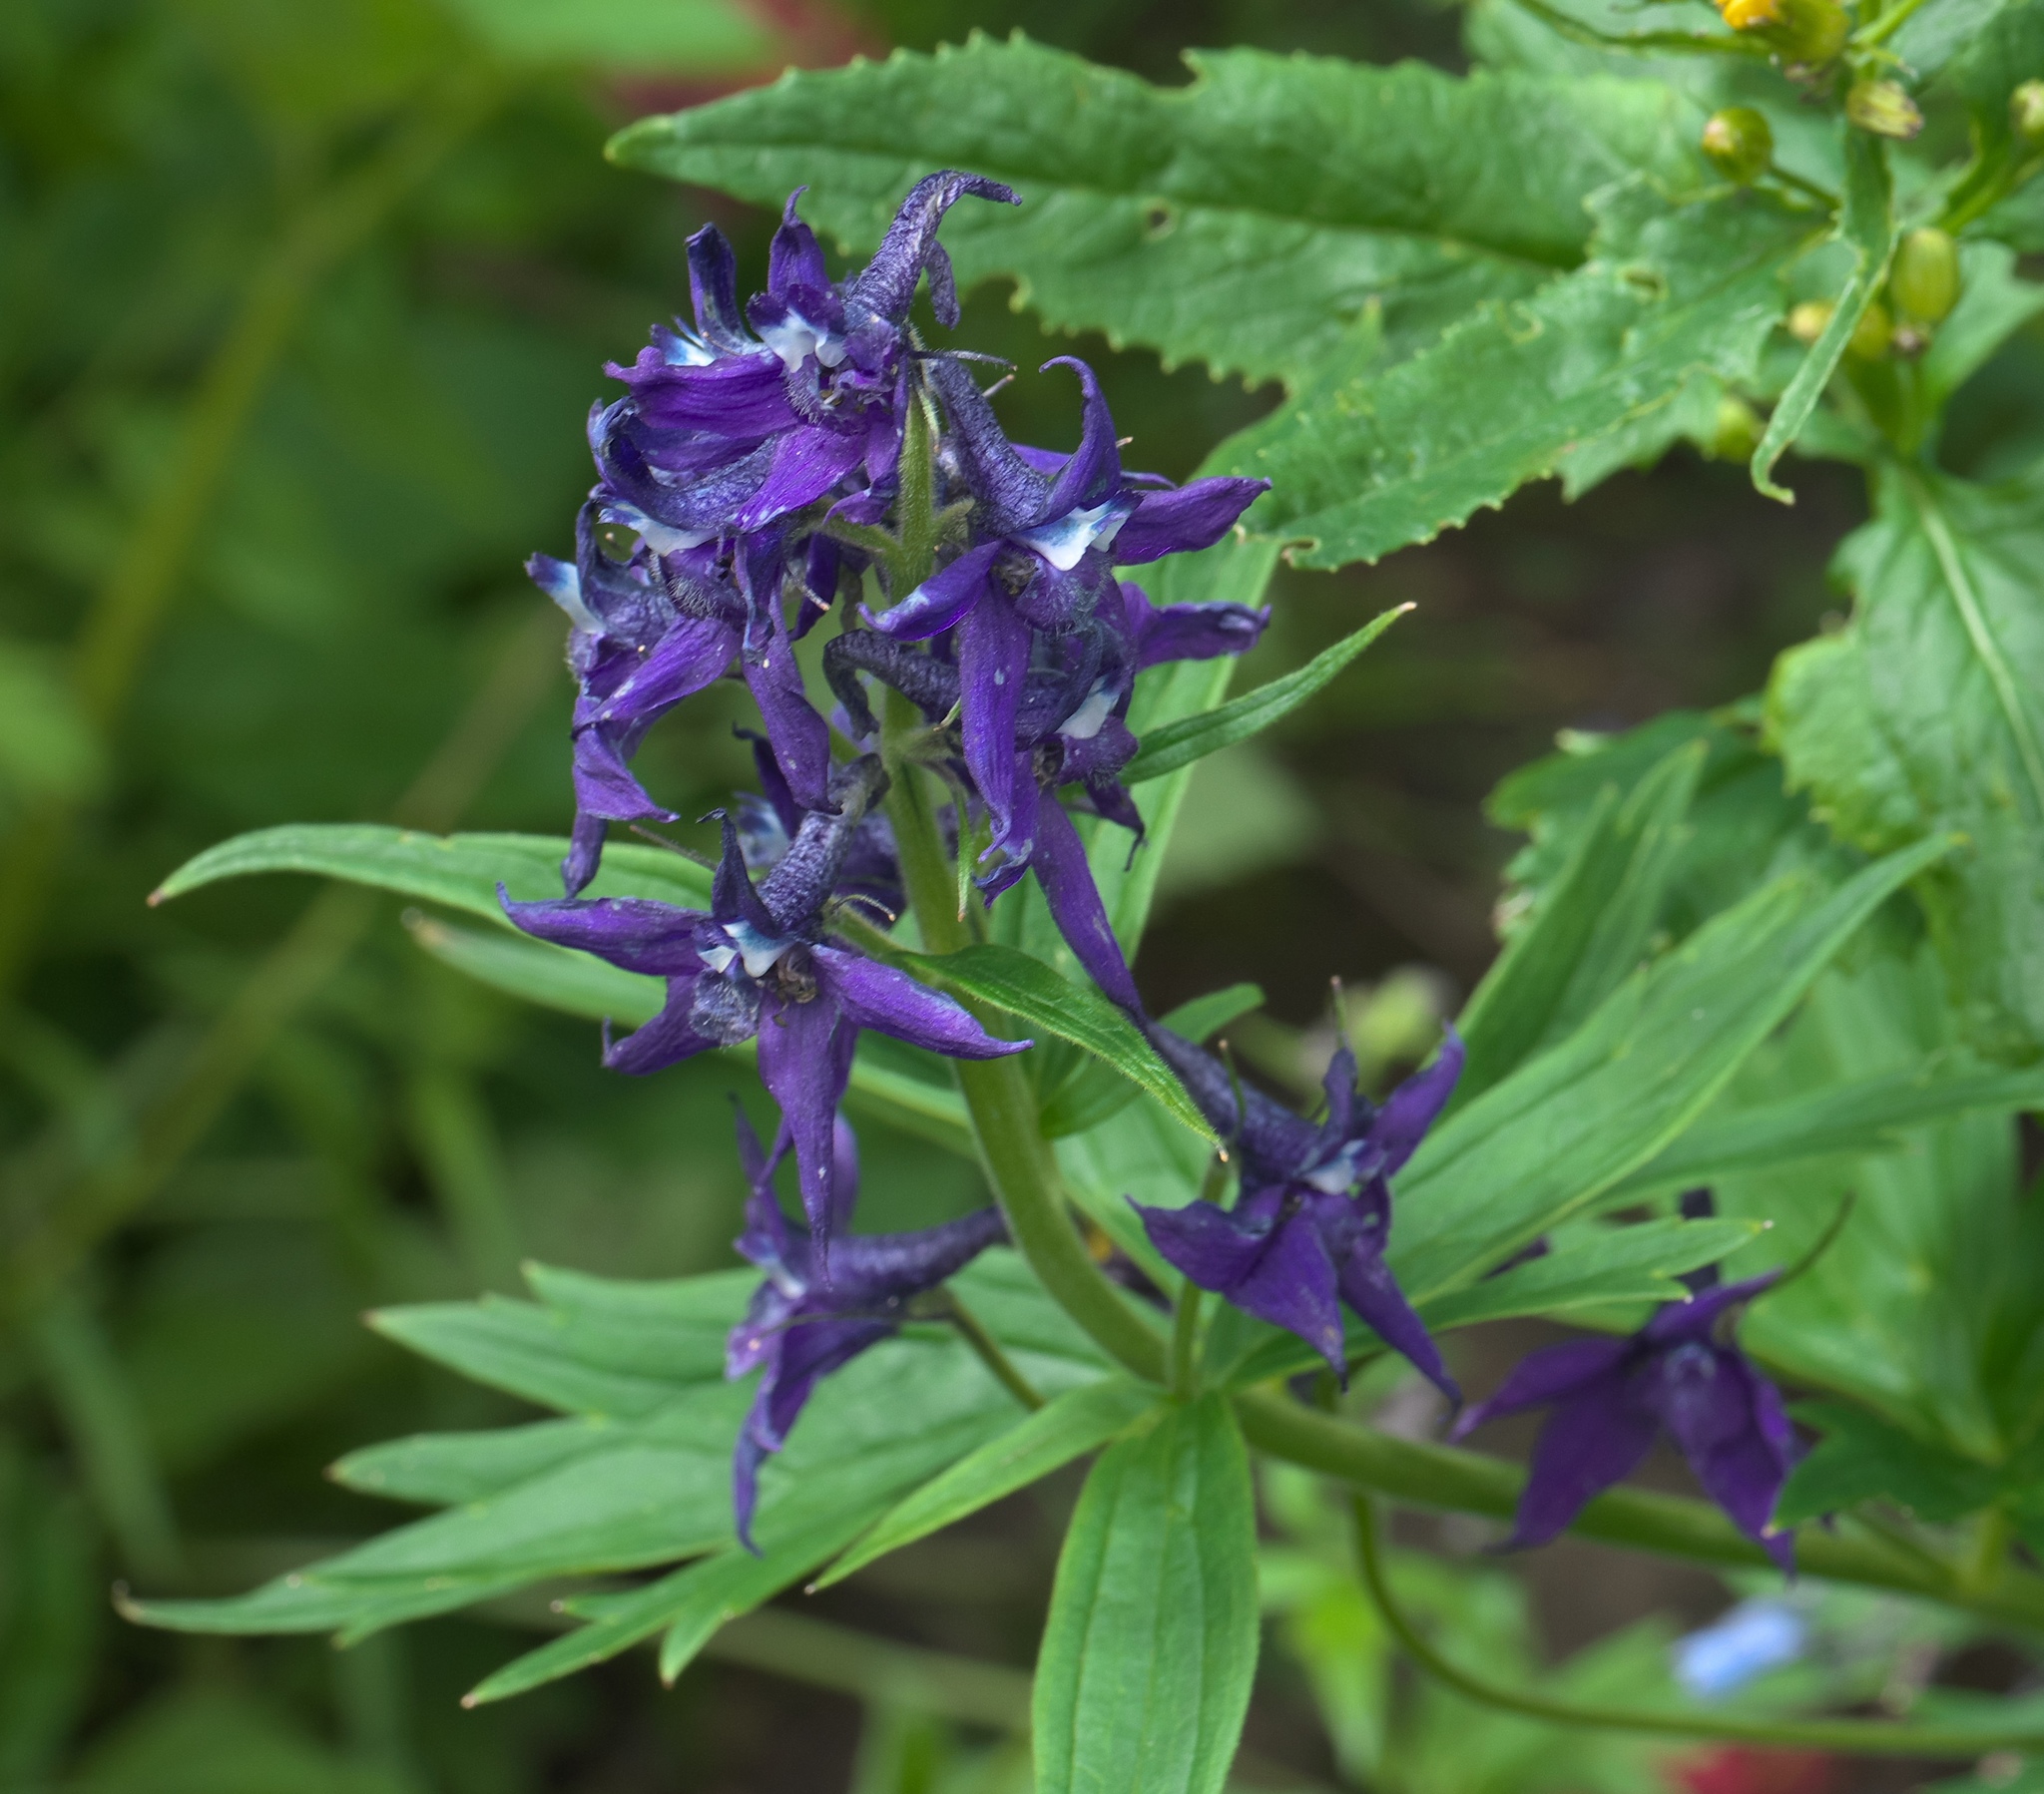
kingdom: Plantae
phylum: Tracheophyta
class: Magnoliopsida
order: Ranunculales
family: Ranunculaceae
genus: Delphinium
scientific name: Delphinium barbeyi
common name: Subalpine larkspur
